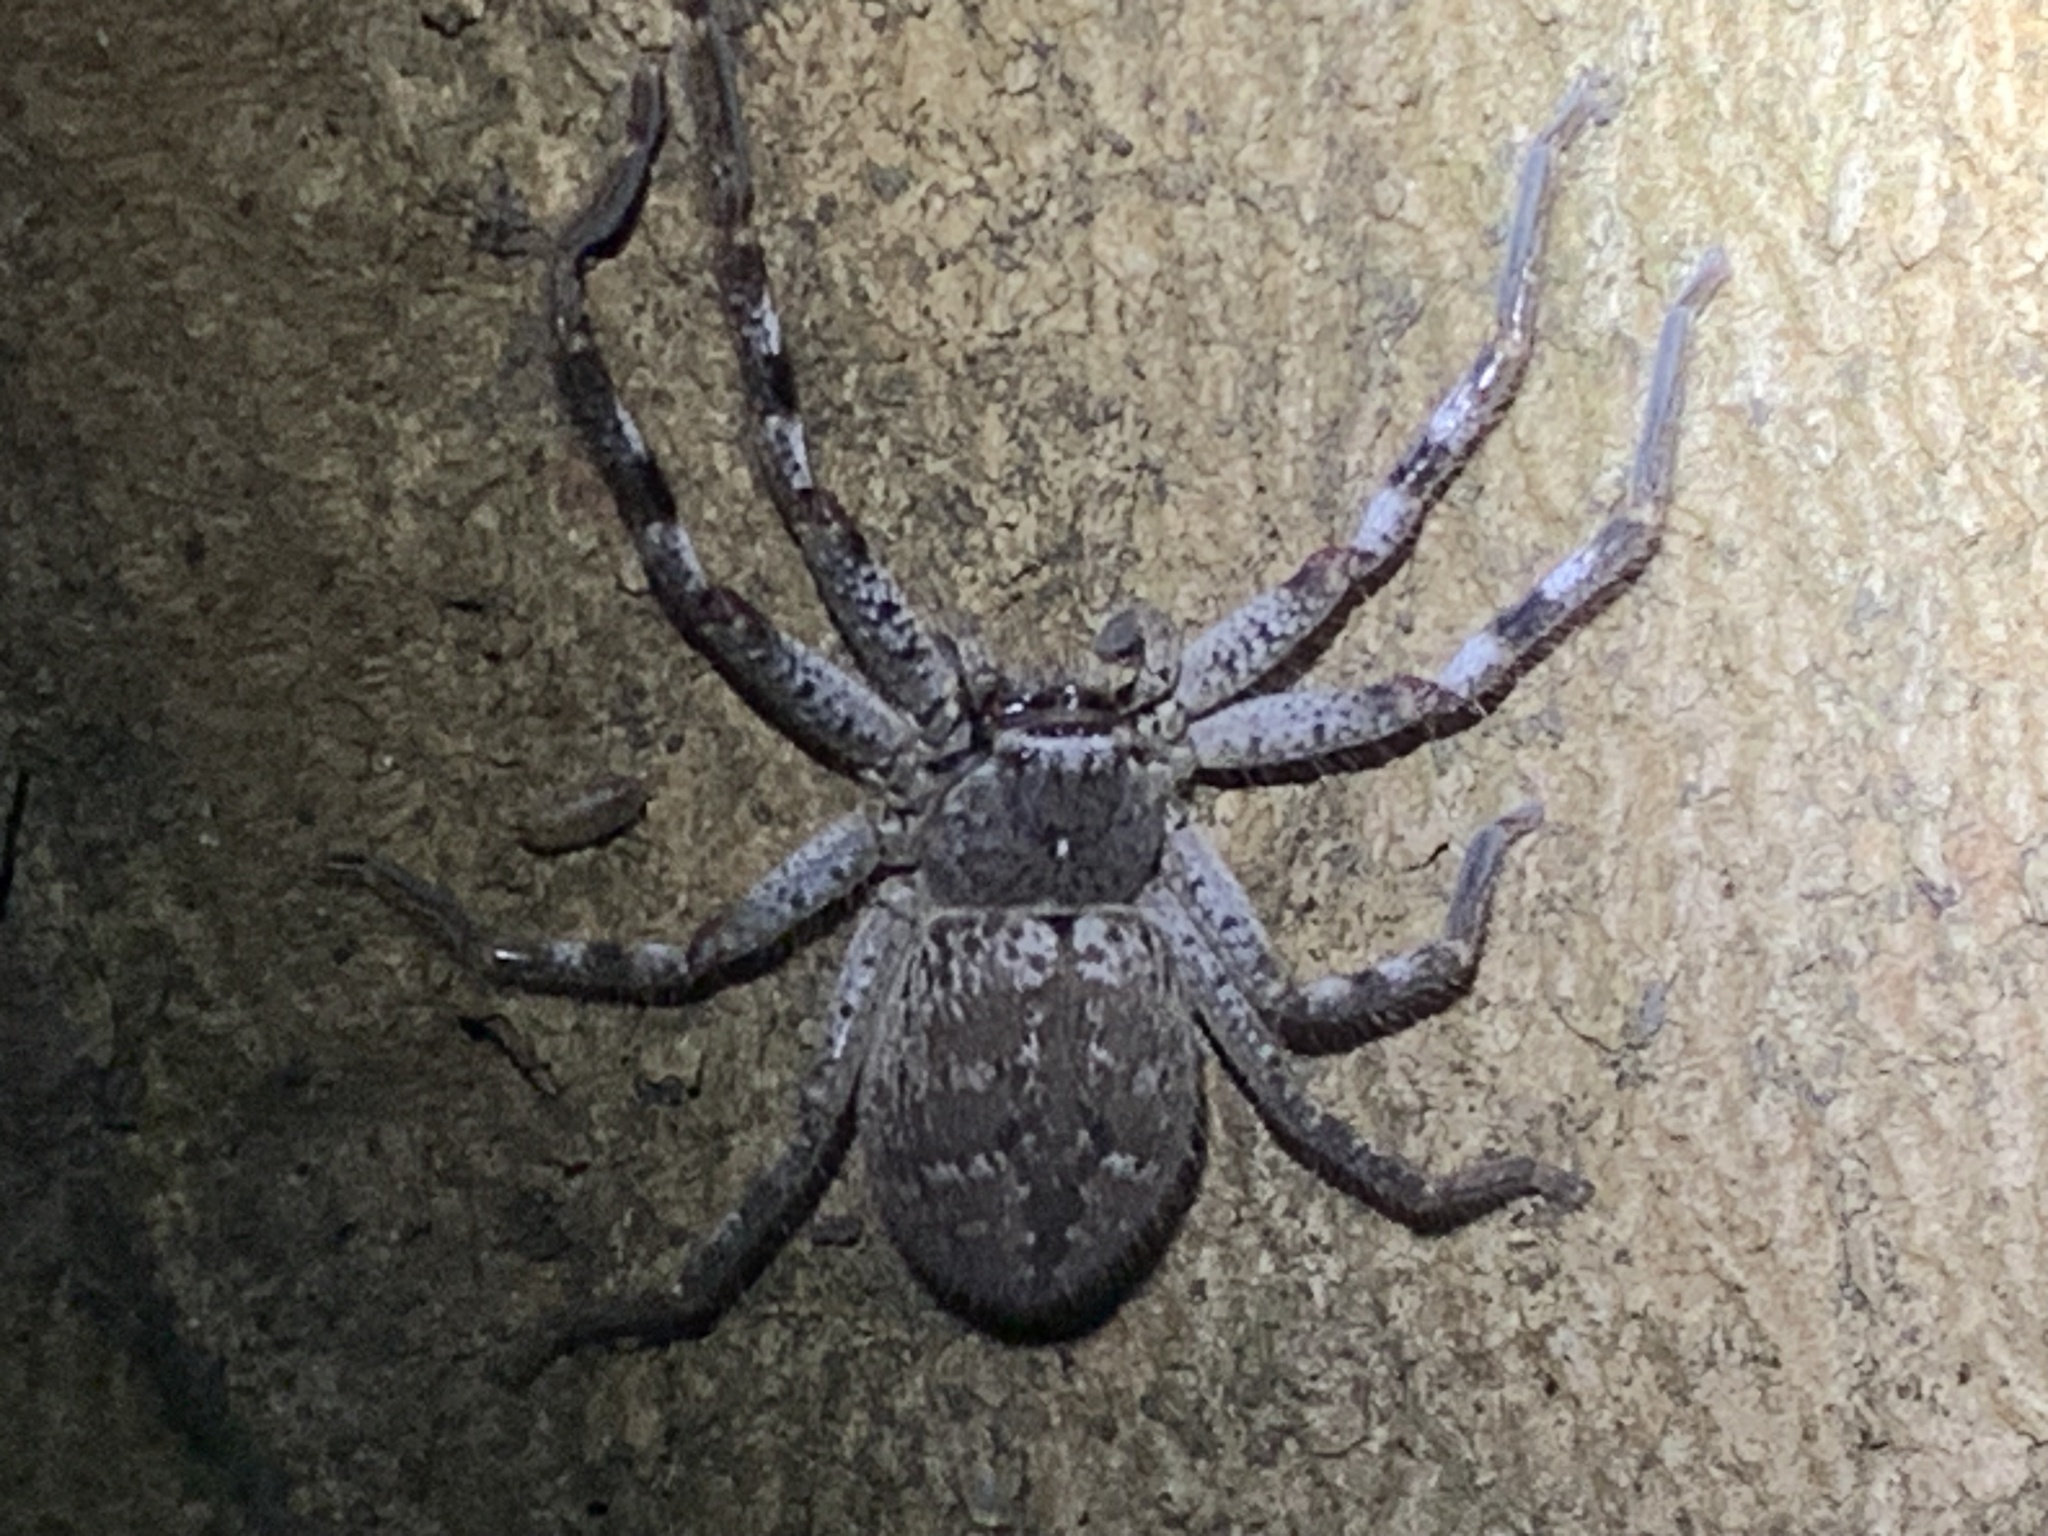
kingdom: Animalia
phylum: Arthropoda
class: Arachnida
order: Araneae
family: Sparassidae
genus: Isopedella
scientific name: Isopedella victorialis
